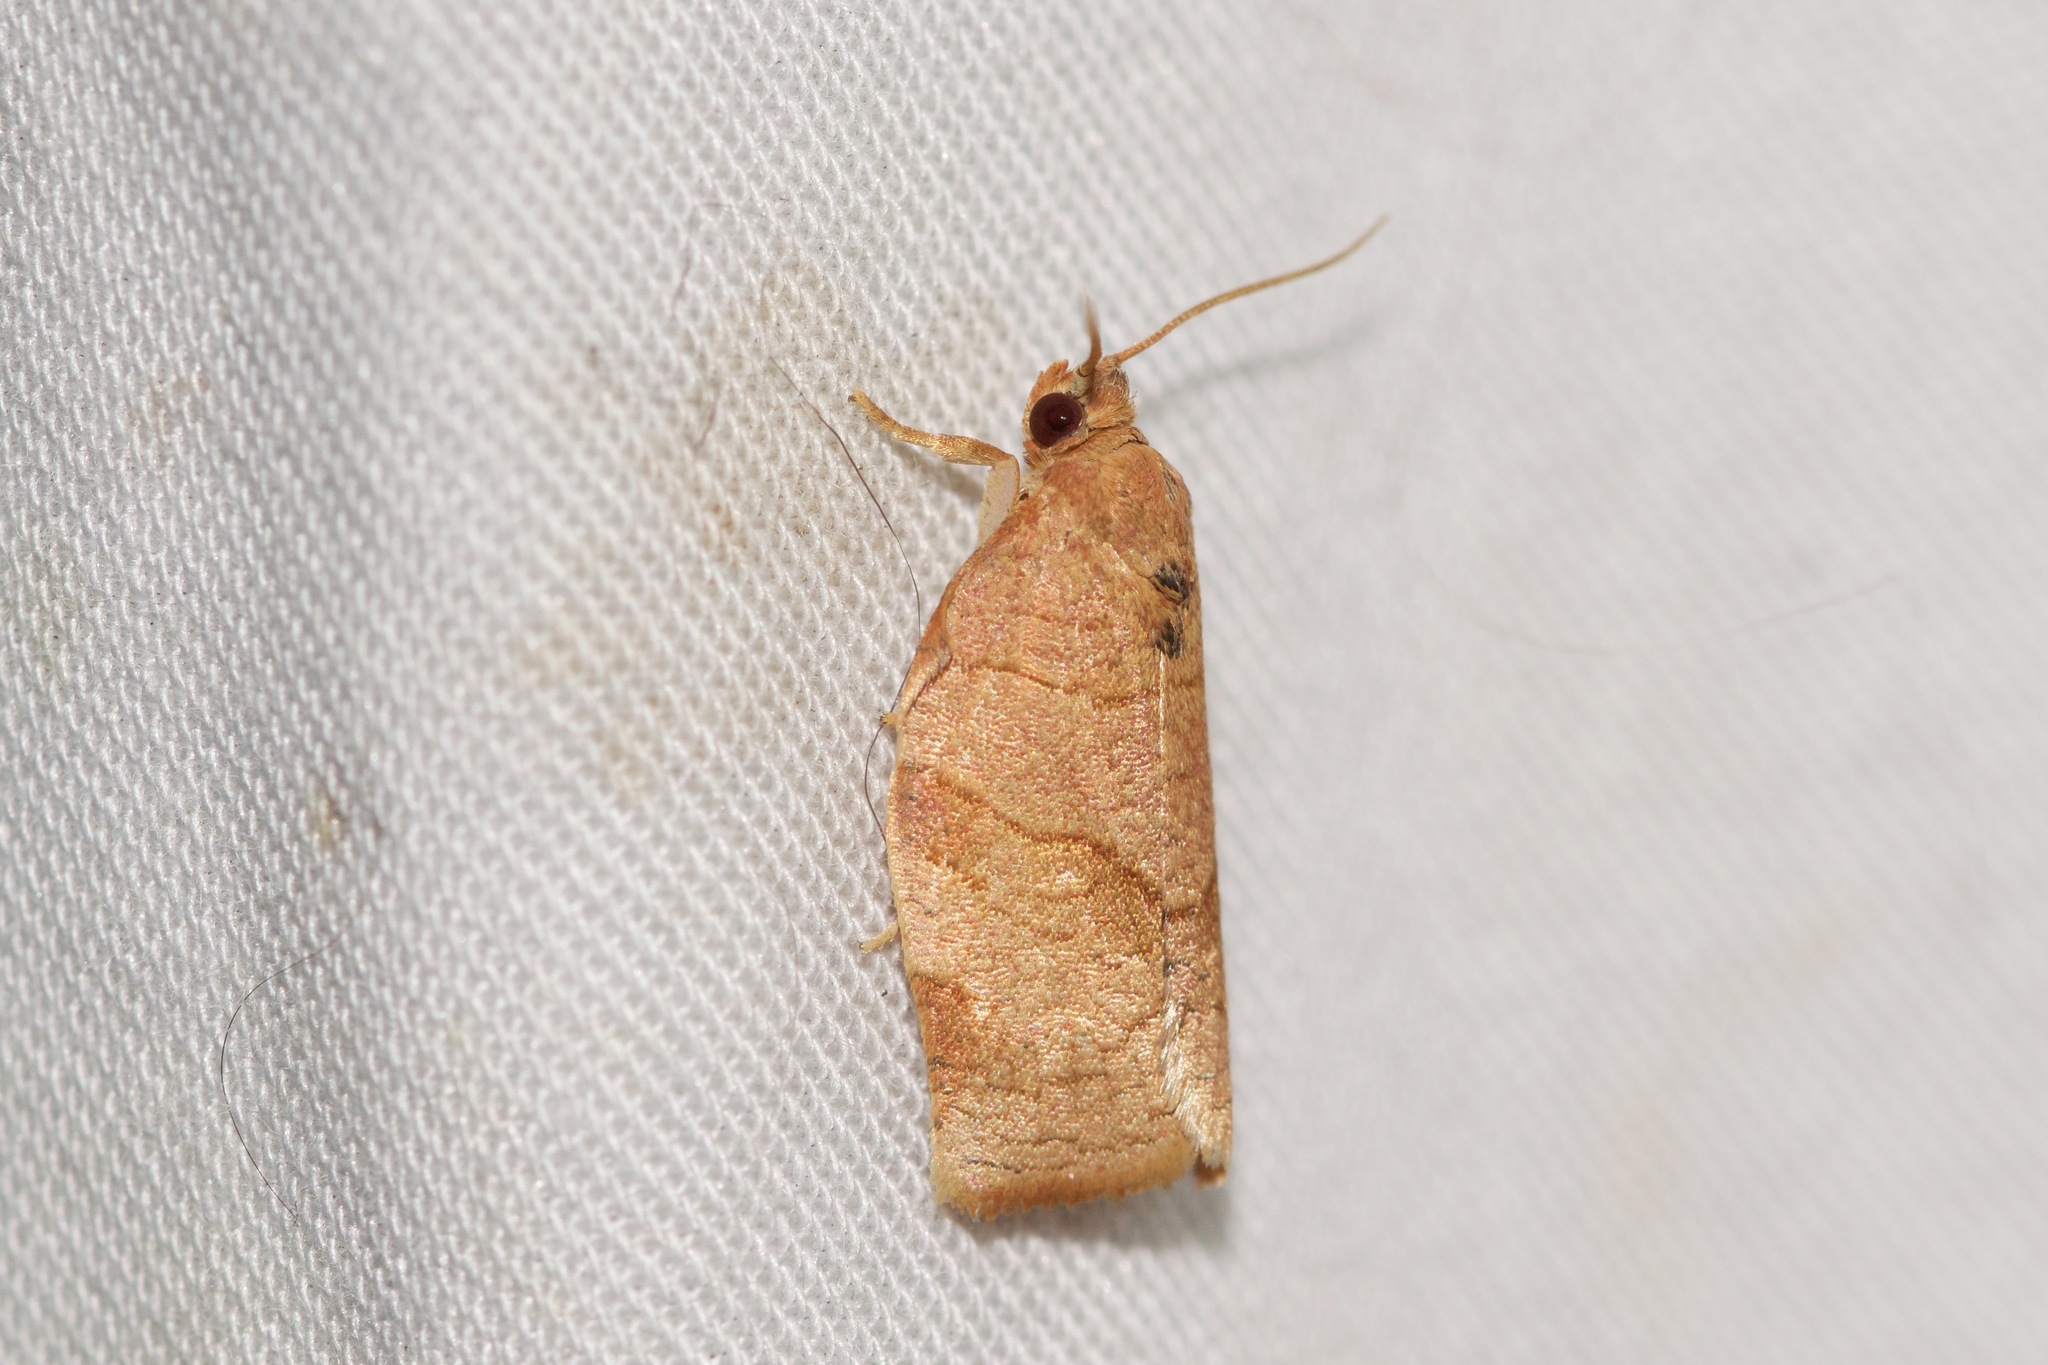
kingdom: Animalia
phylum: Arthropoda
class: Insecta
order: Lepidoptera
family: Tortricidae
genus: Choristoneura
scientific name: Choristoneura rosaceana
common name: Oblique-banded leafroller moth
